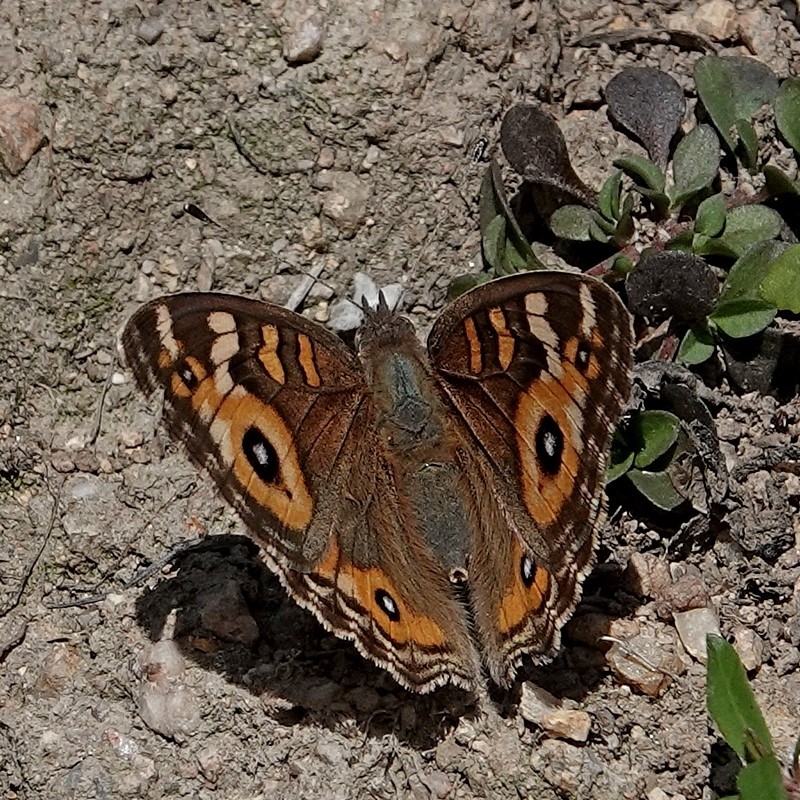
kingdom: Animalia
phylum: Arthropoda
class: Insecta
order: Lepidoptera
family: Nymphalidae
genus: Junonia
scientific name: Junonia villida
